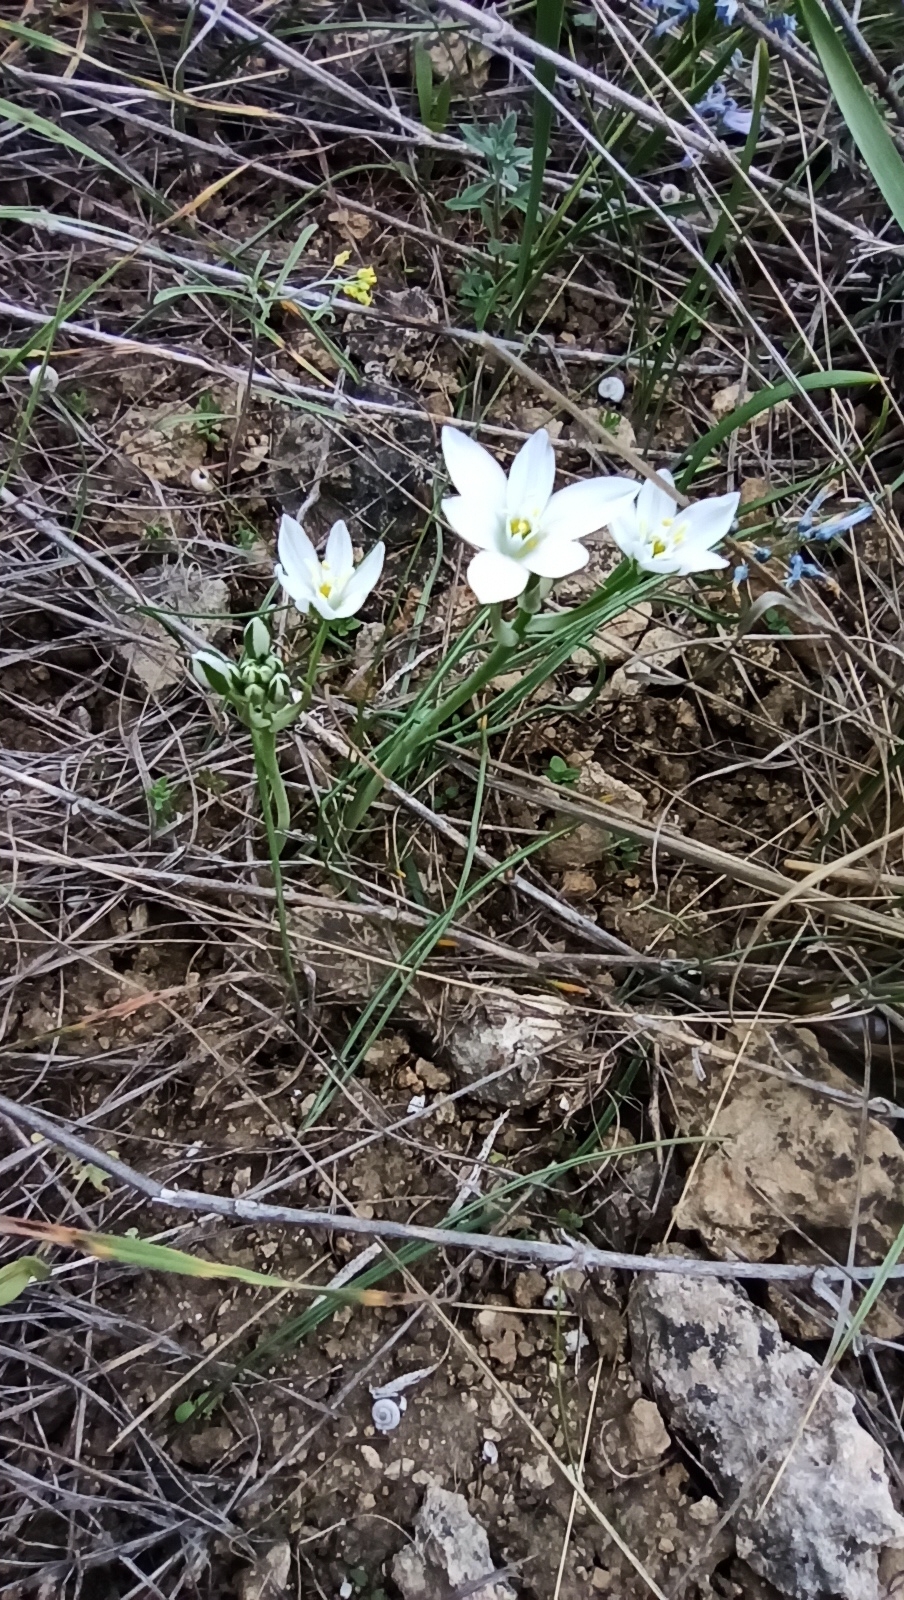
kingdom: Plantae
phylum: Tracheophyta
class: Liliopsida
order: Asparagales
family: Asparagaceae
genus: Ornithogalum
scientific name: Ornithogalum orthophyllum
